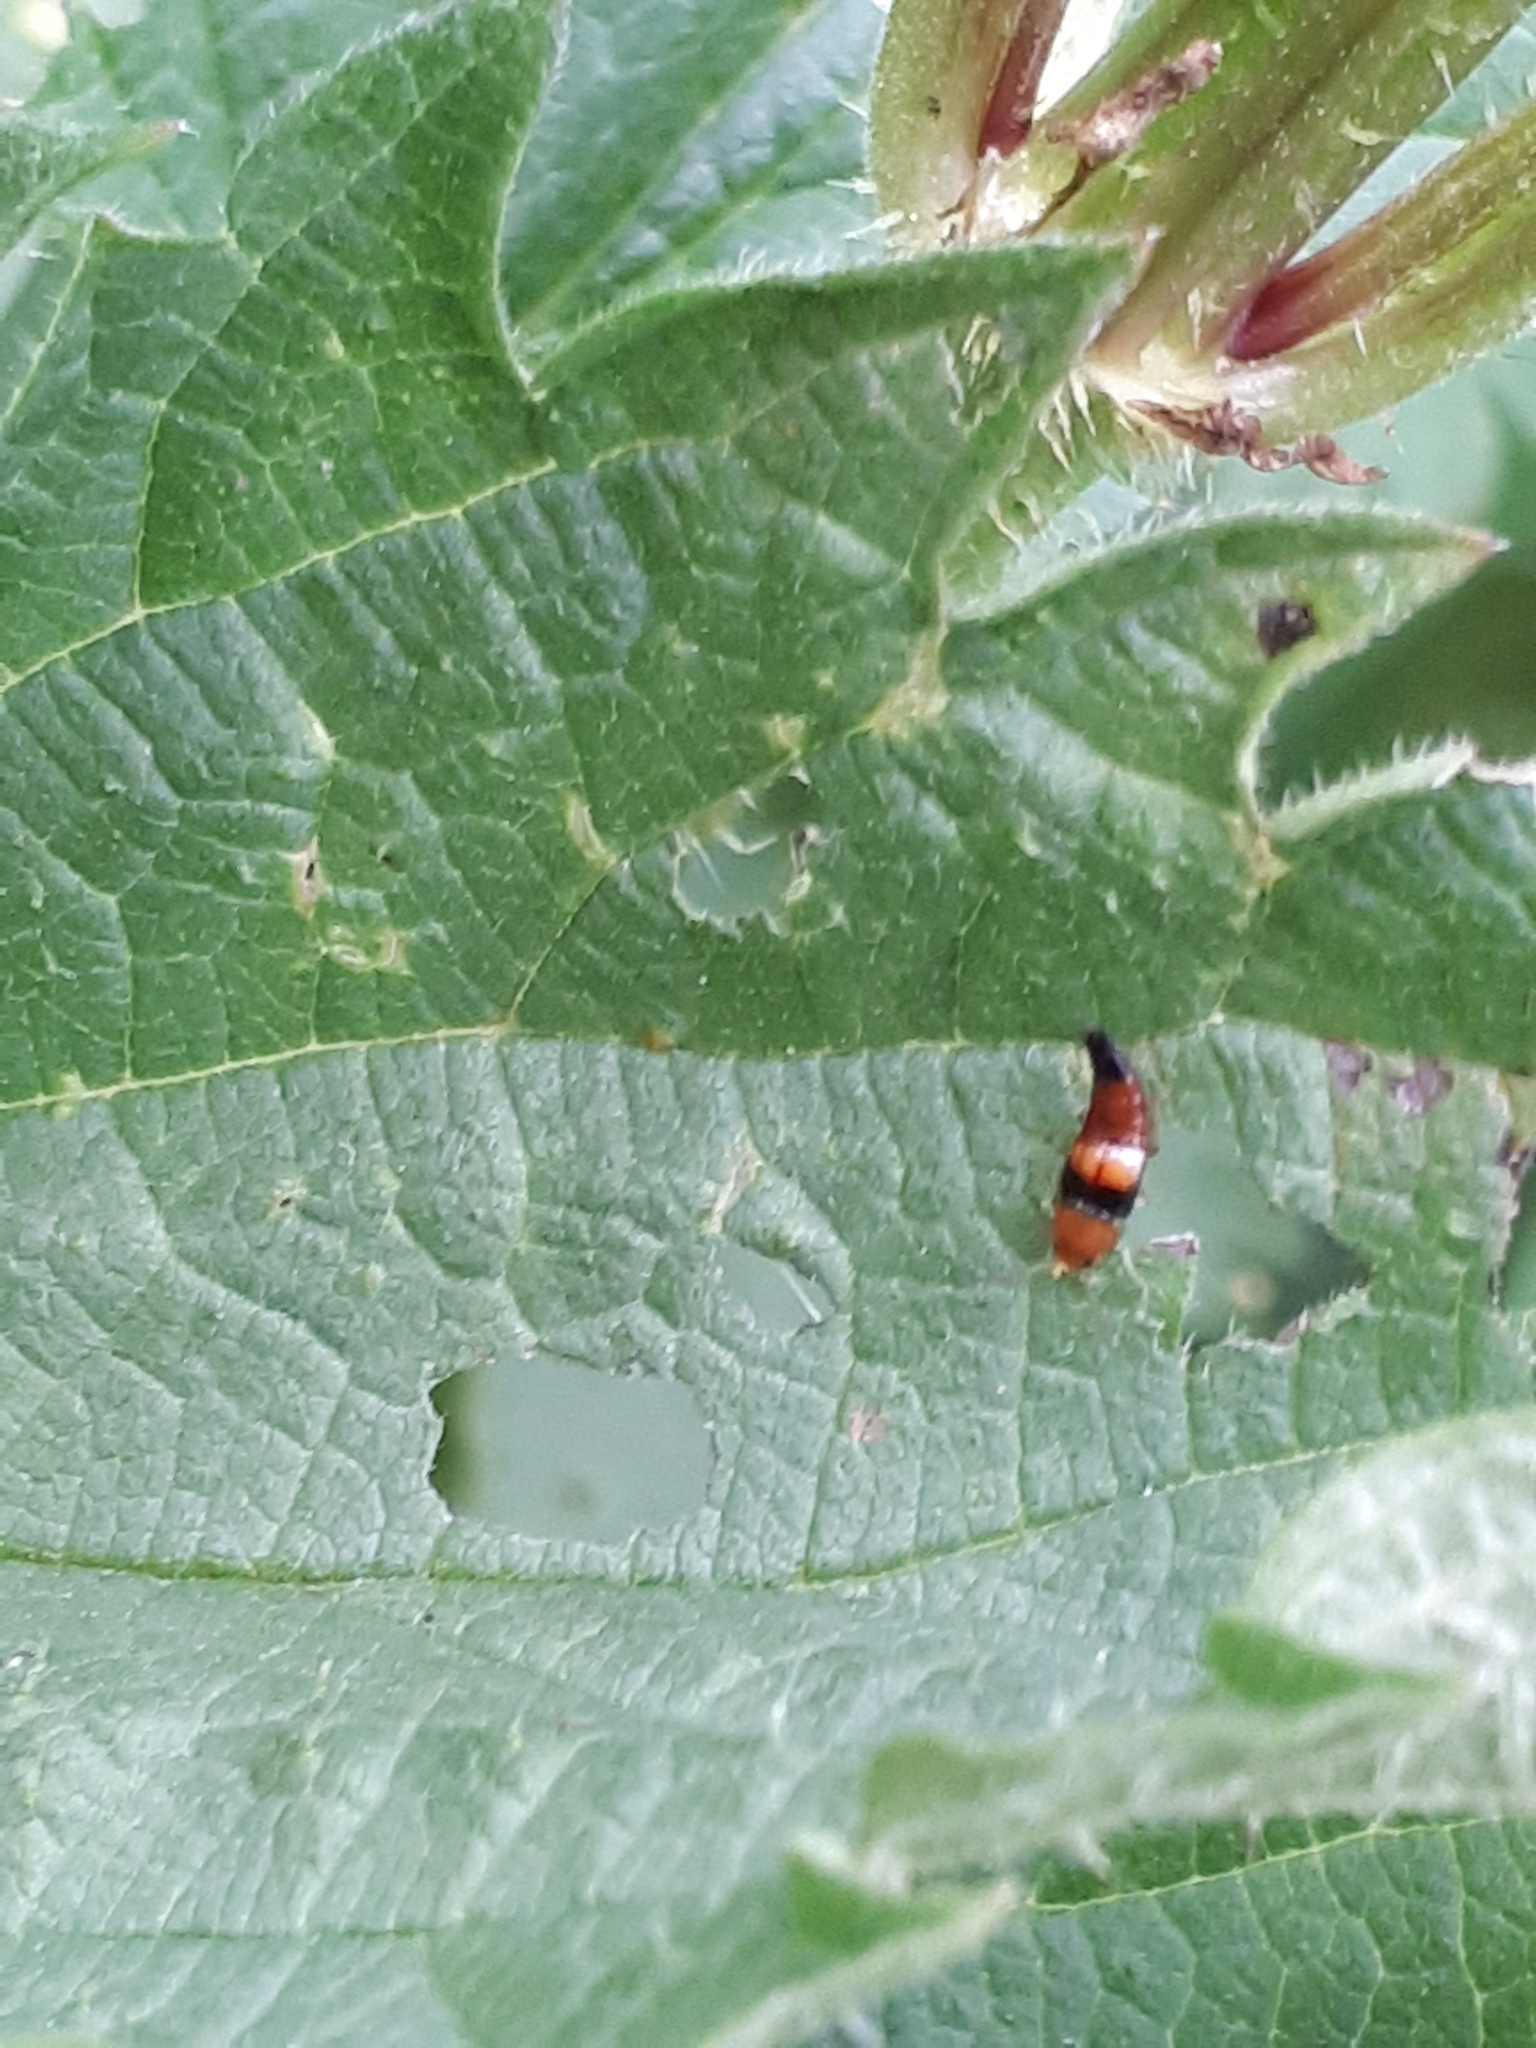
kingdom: Animalia
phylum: Arthropoda
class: Insecta
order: Coleoptera
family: Staphylinidae
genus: Tachyporus
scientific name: Tachyporus obtusus
